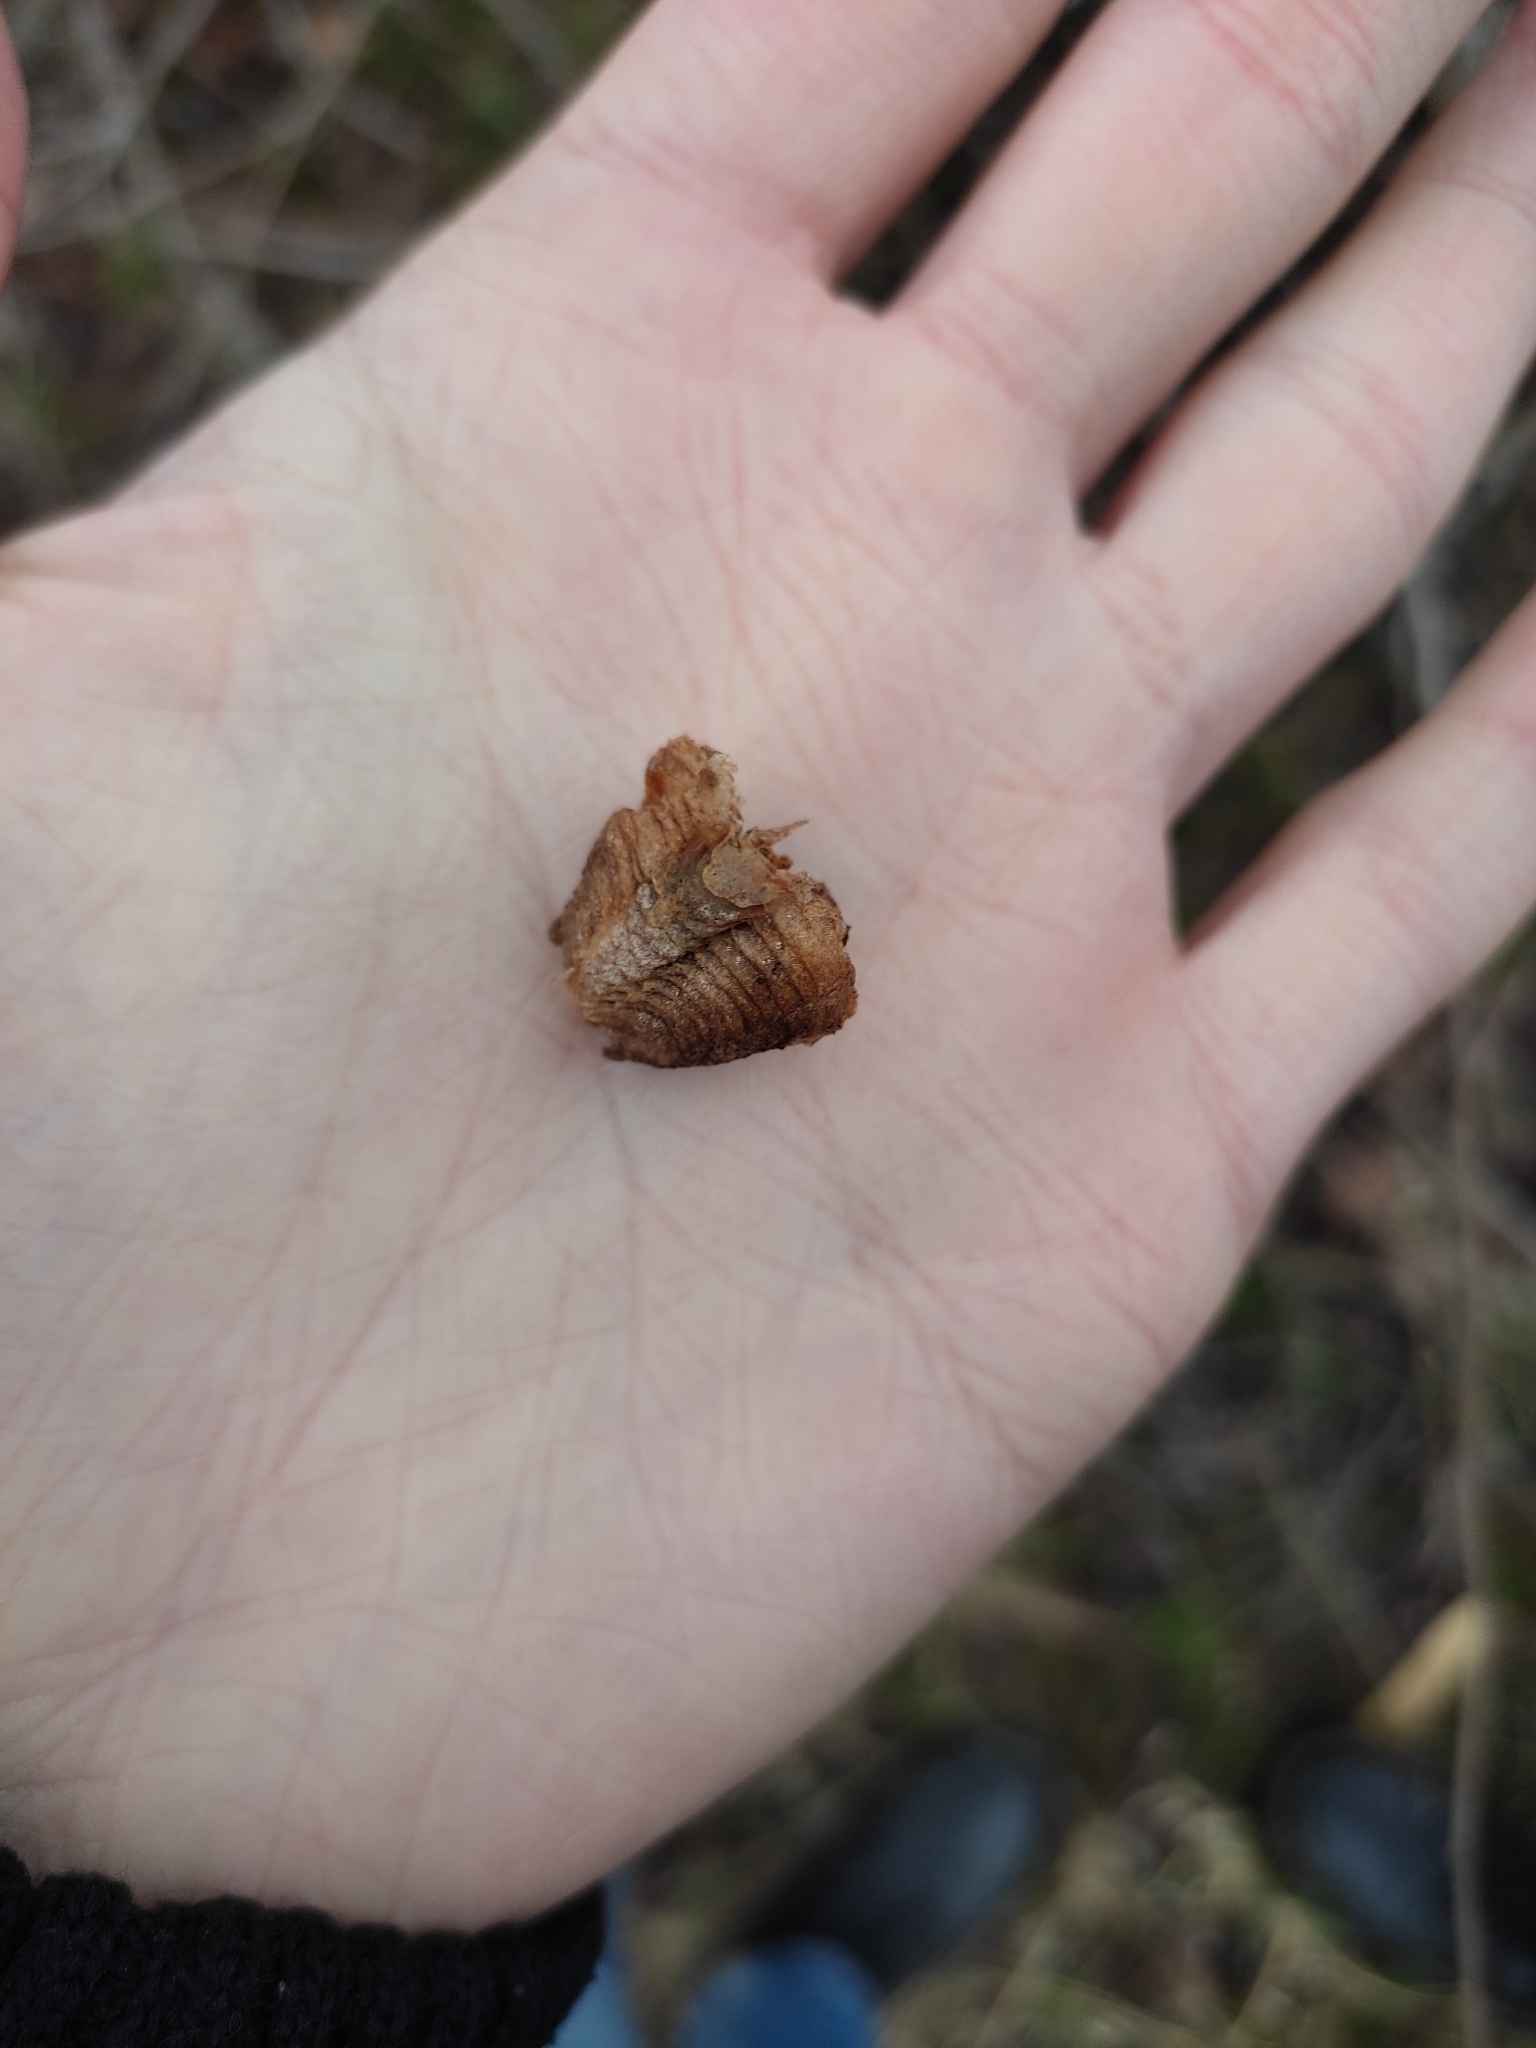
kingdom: Animalia
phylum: Arthropoda
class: Insecta
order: Mantodea
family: Mantidae
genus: Mantis
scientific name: Mantis religiosa
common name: Praying mantis
